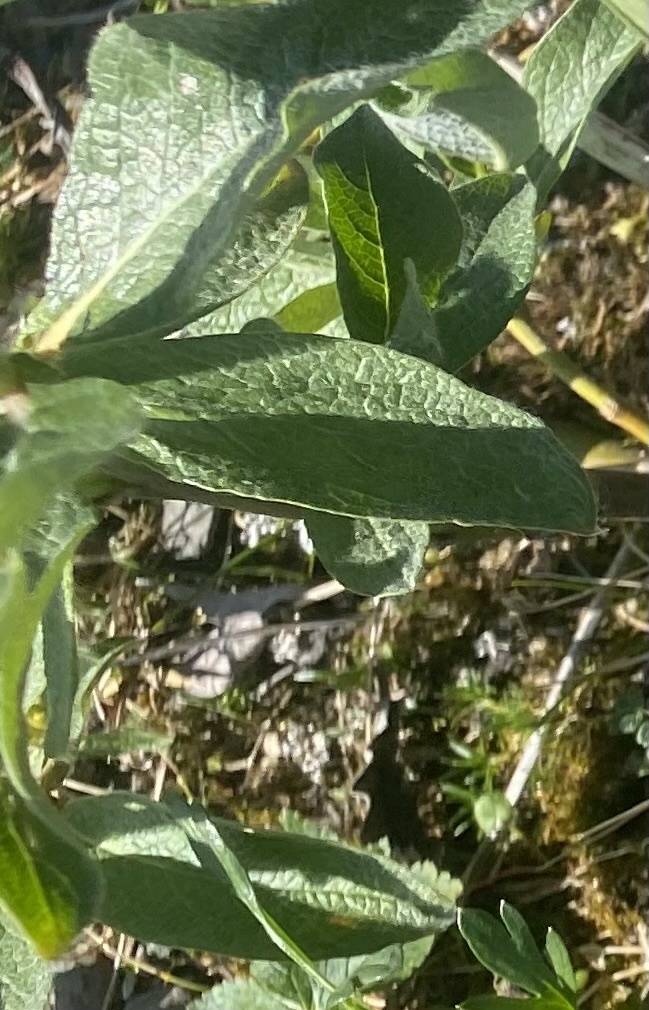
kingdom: Plantae
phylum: Tracheophyta
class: Magnoliopsida
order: Malpighiales
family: Salicaceae
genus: Salix
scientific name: Salix glauca
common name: Glaucous willow
